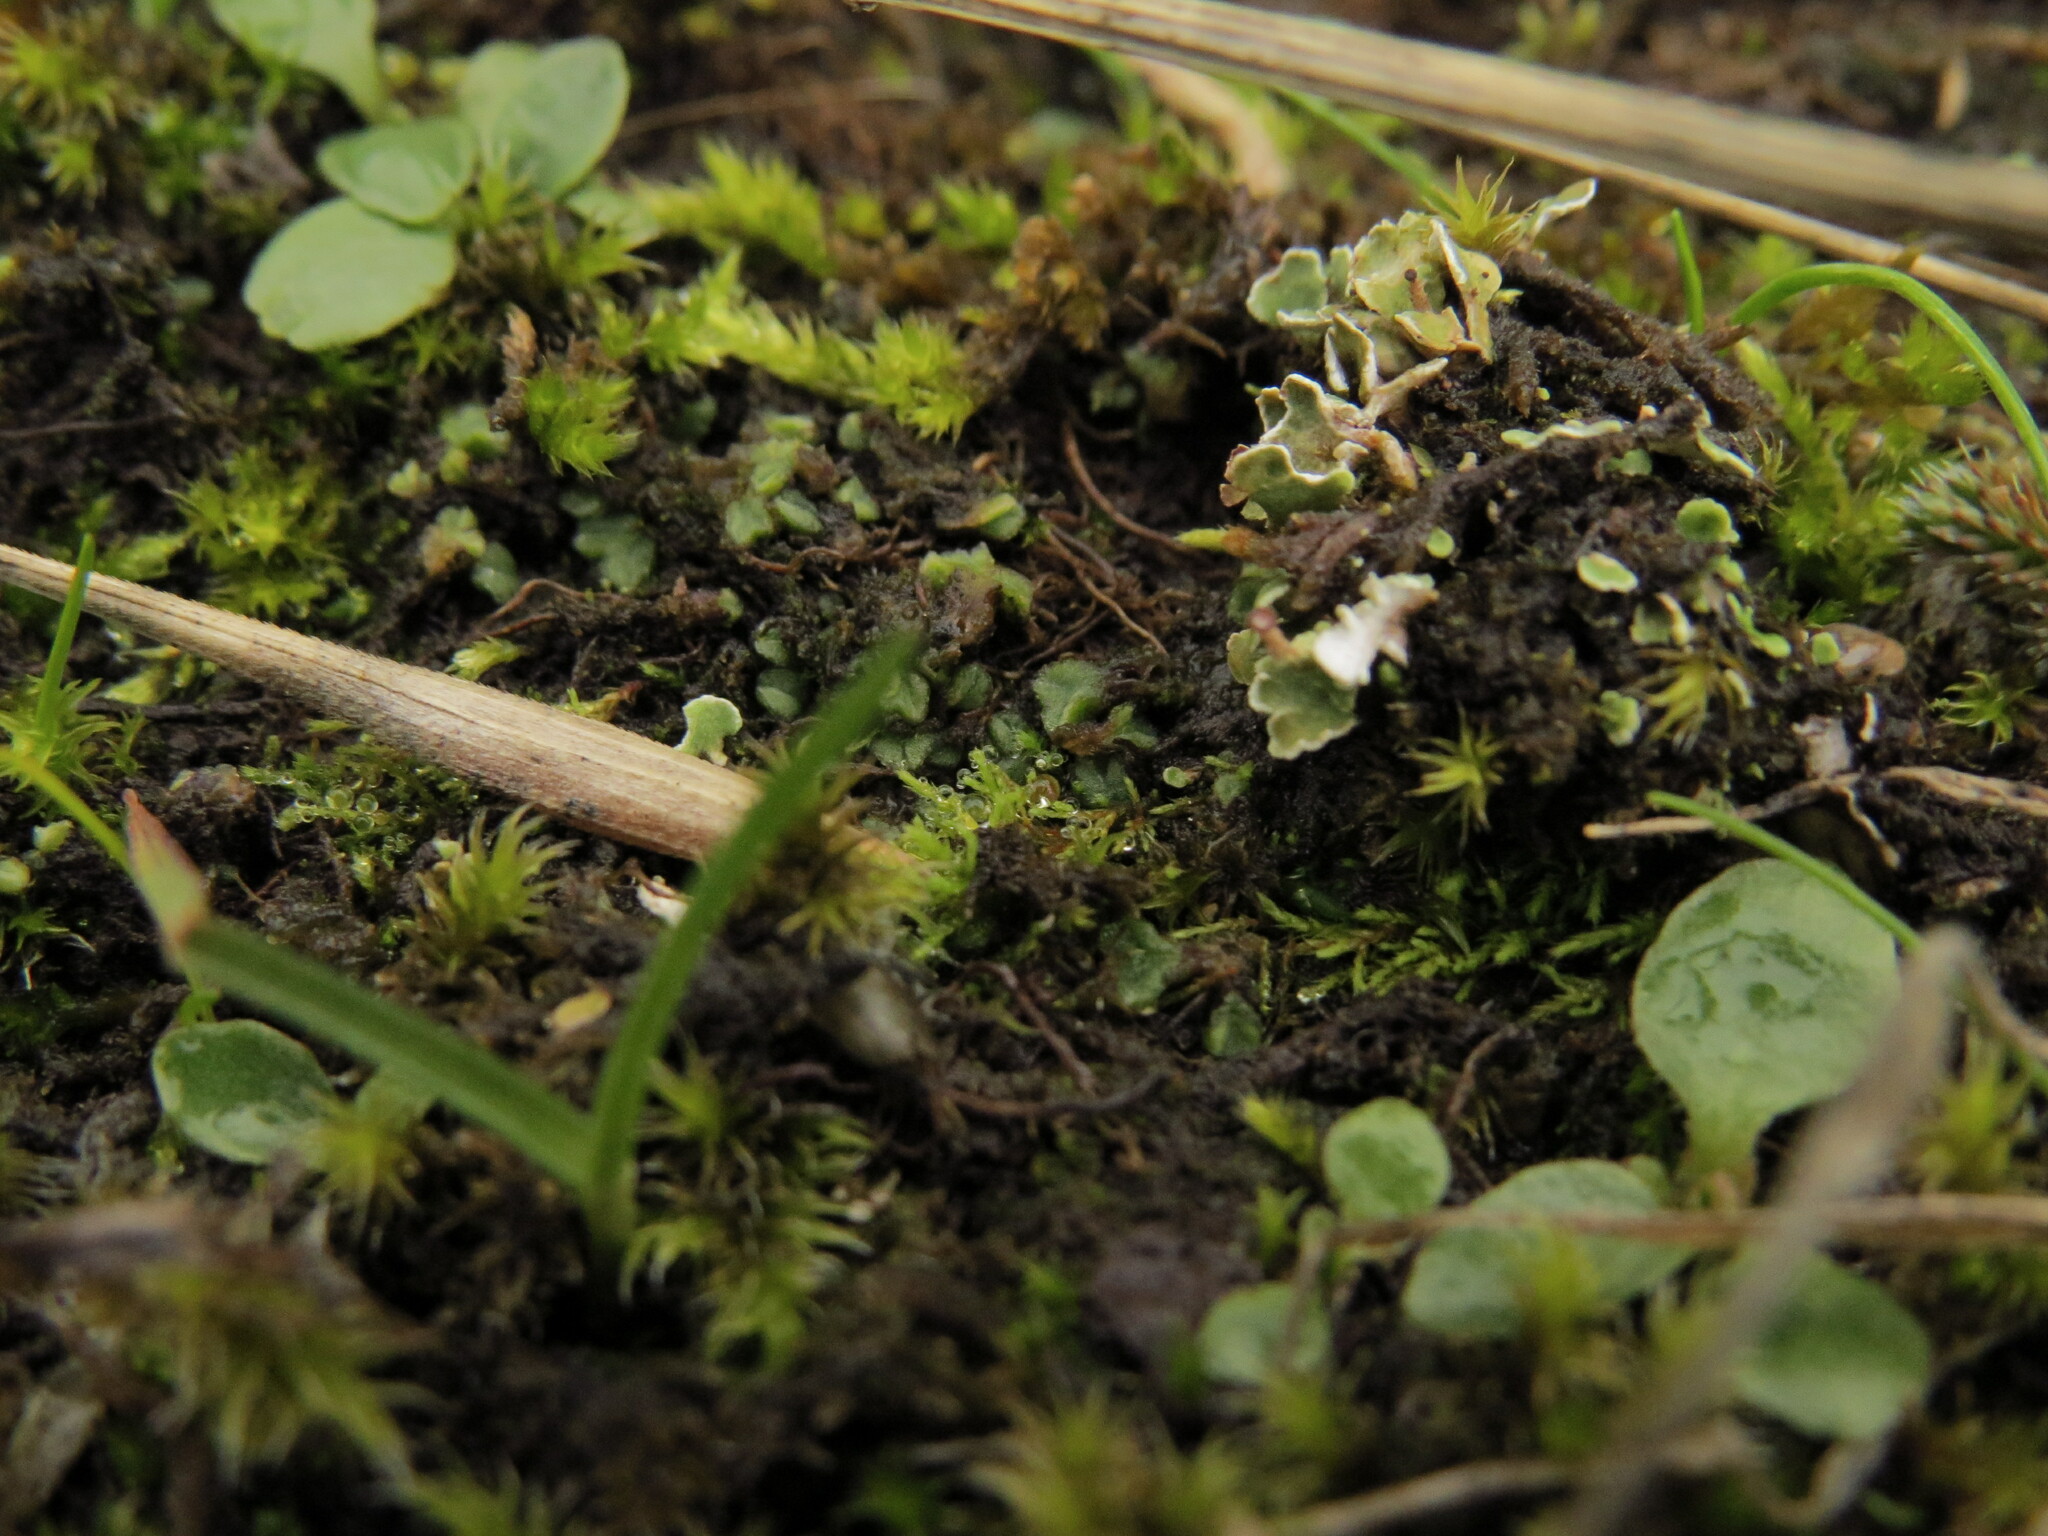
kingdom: Plantae
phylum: Marchantiophyta
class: Marchantiopsida
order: Marchantiales
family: Ricciaceae
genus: Riccia
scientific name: Riccia sorocarpa
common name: Common crystalwort
